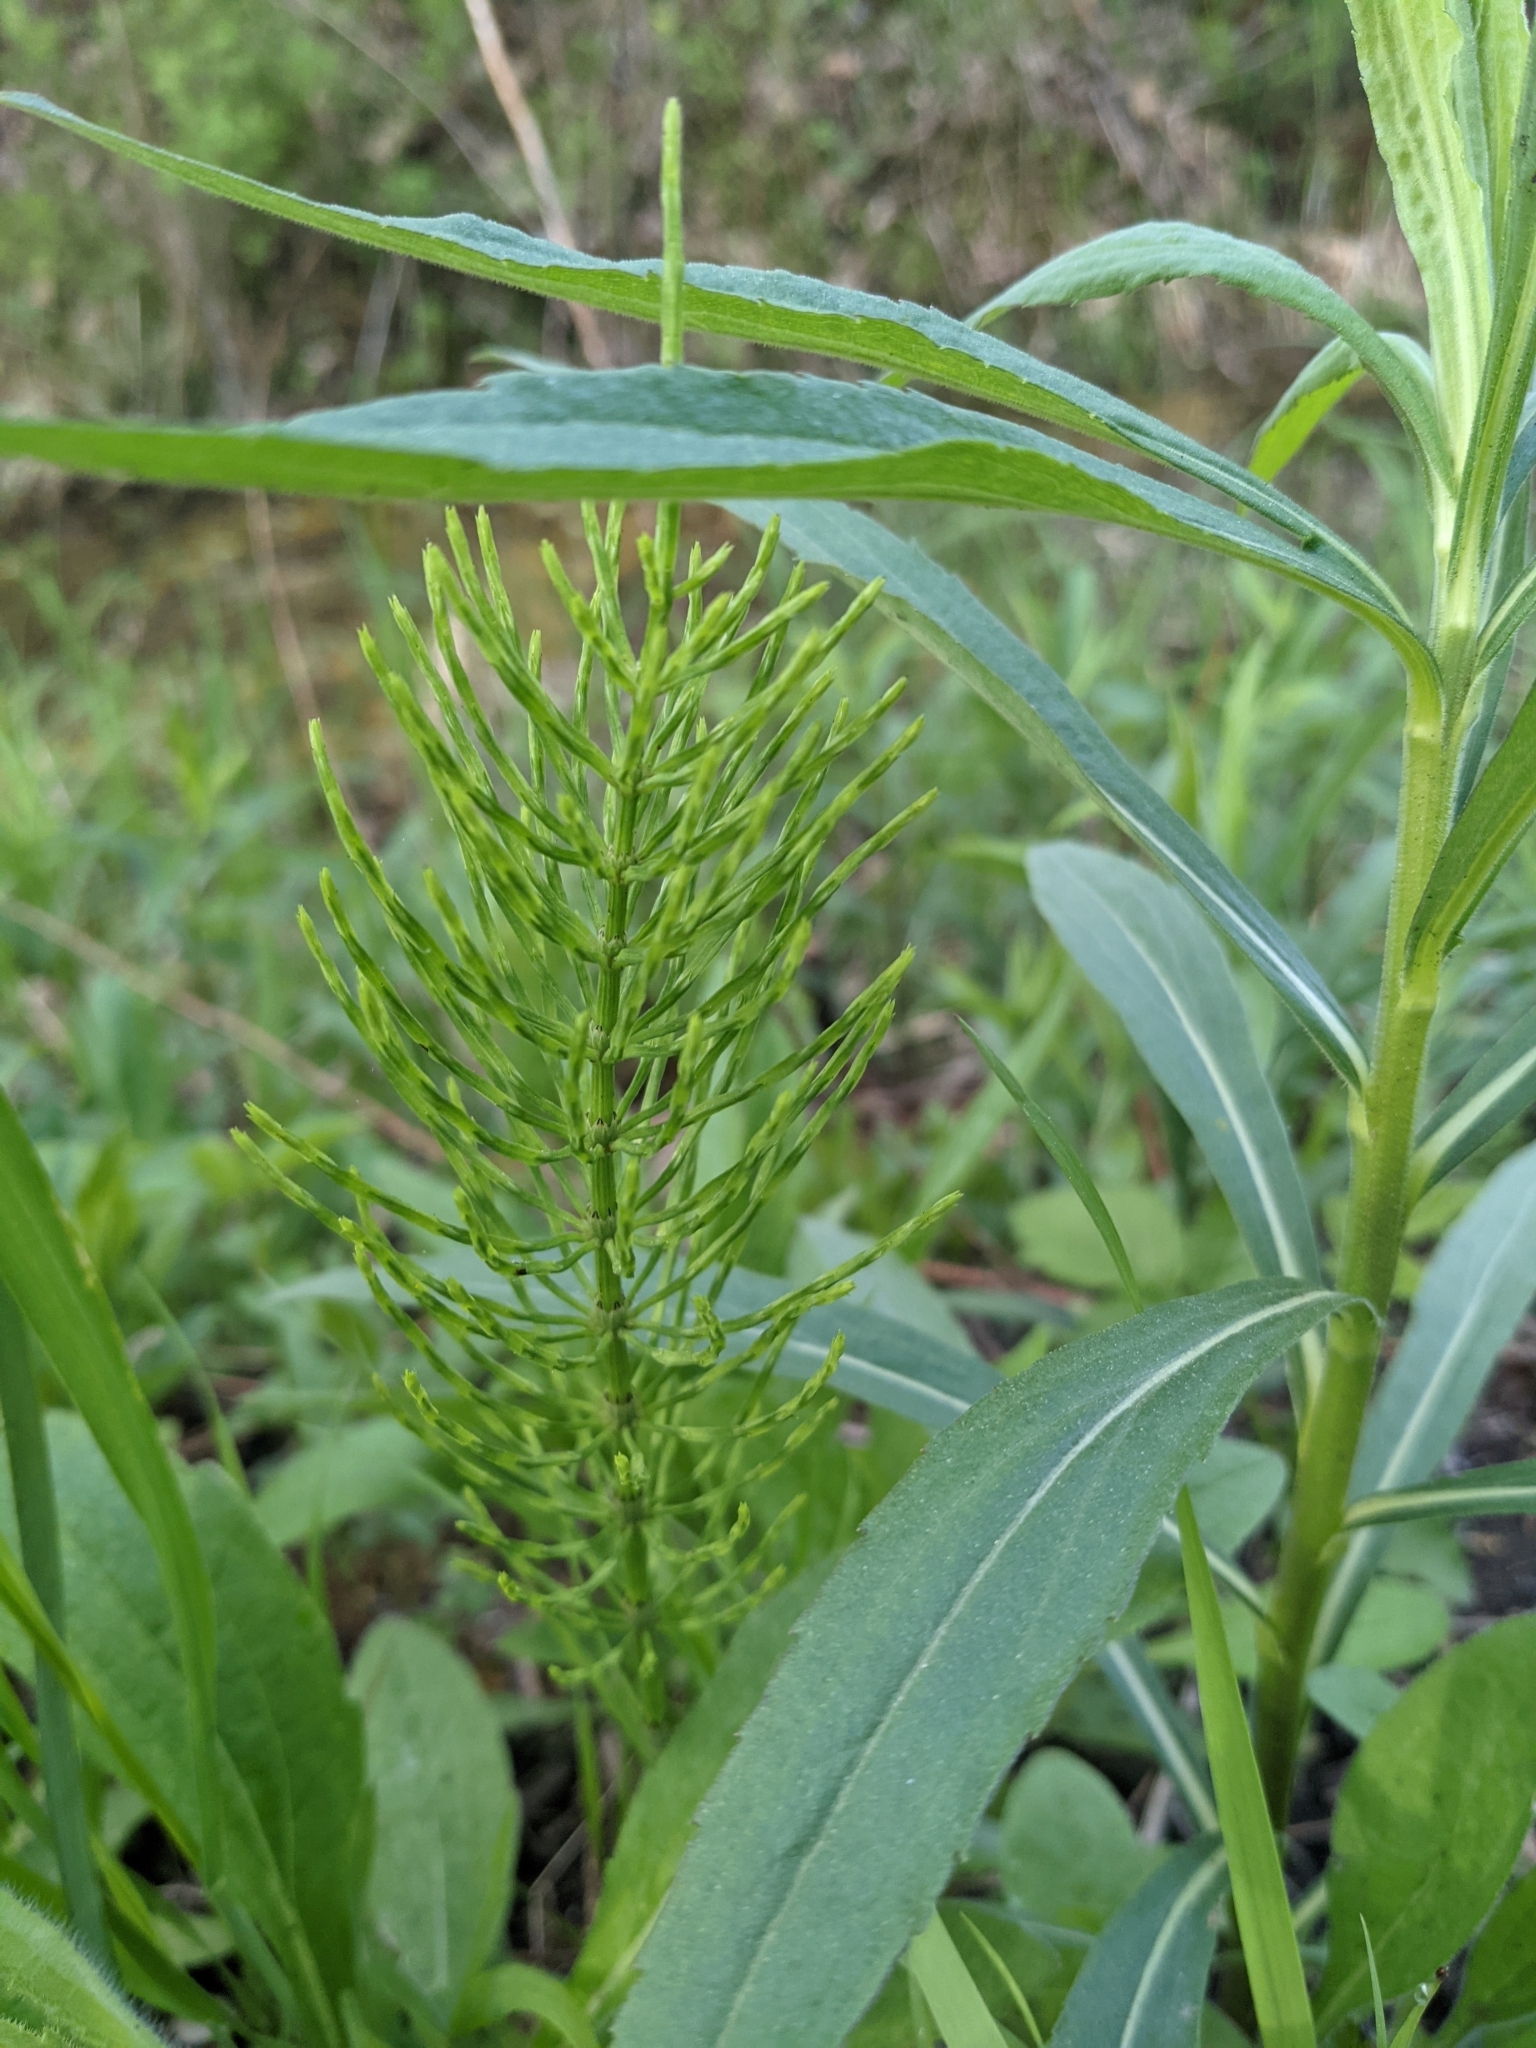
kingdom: Plantae
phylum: Tracheophyta
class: Polypodiopsida
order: Equisetales
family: Equisetaceae
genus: Equisetum
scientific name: Equisetum arvense
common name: Field horsetail
